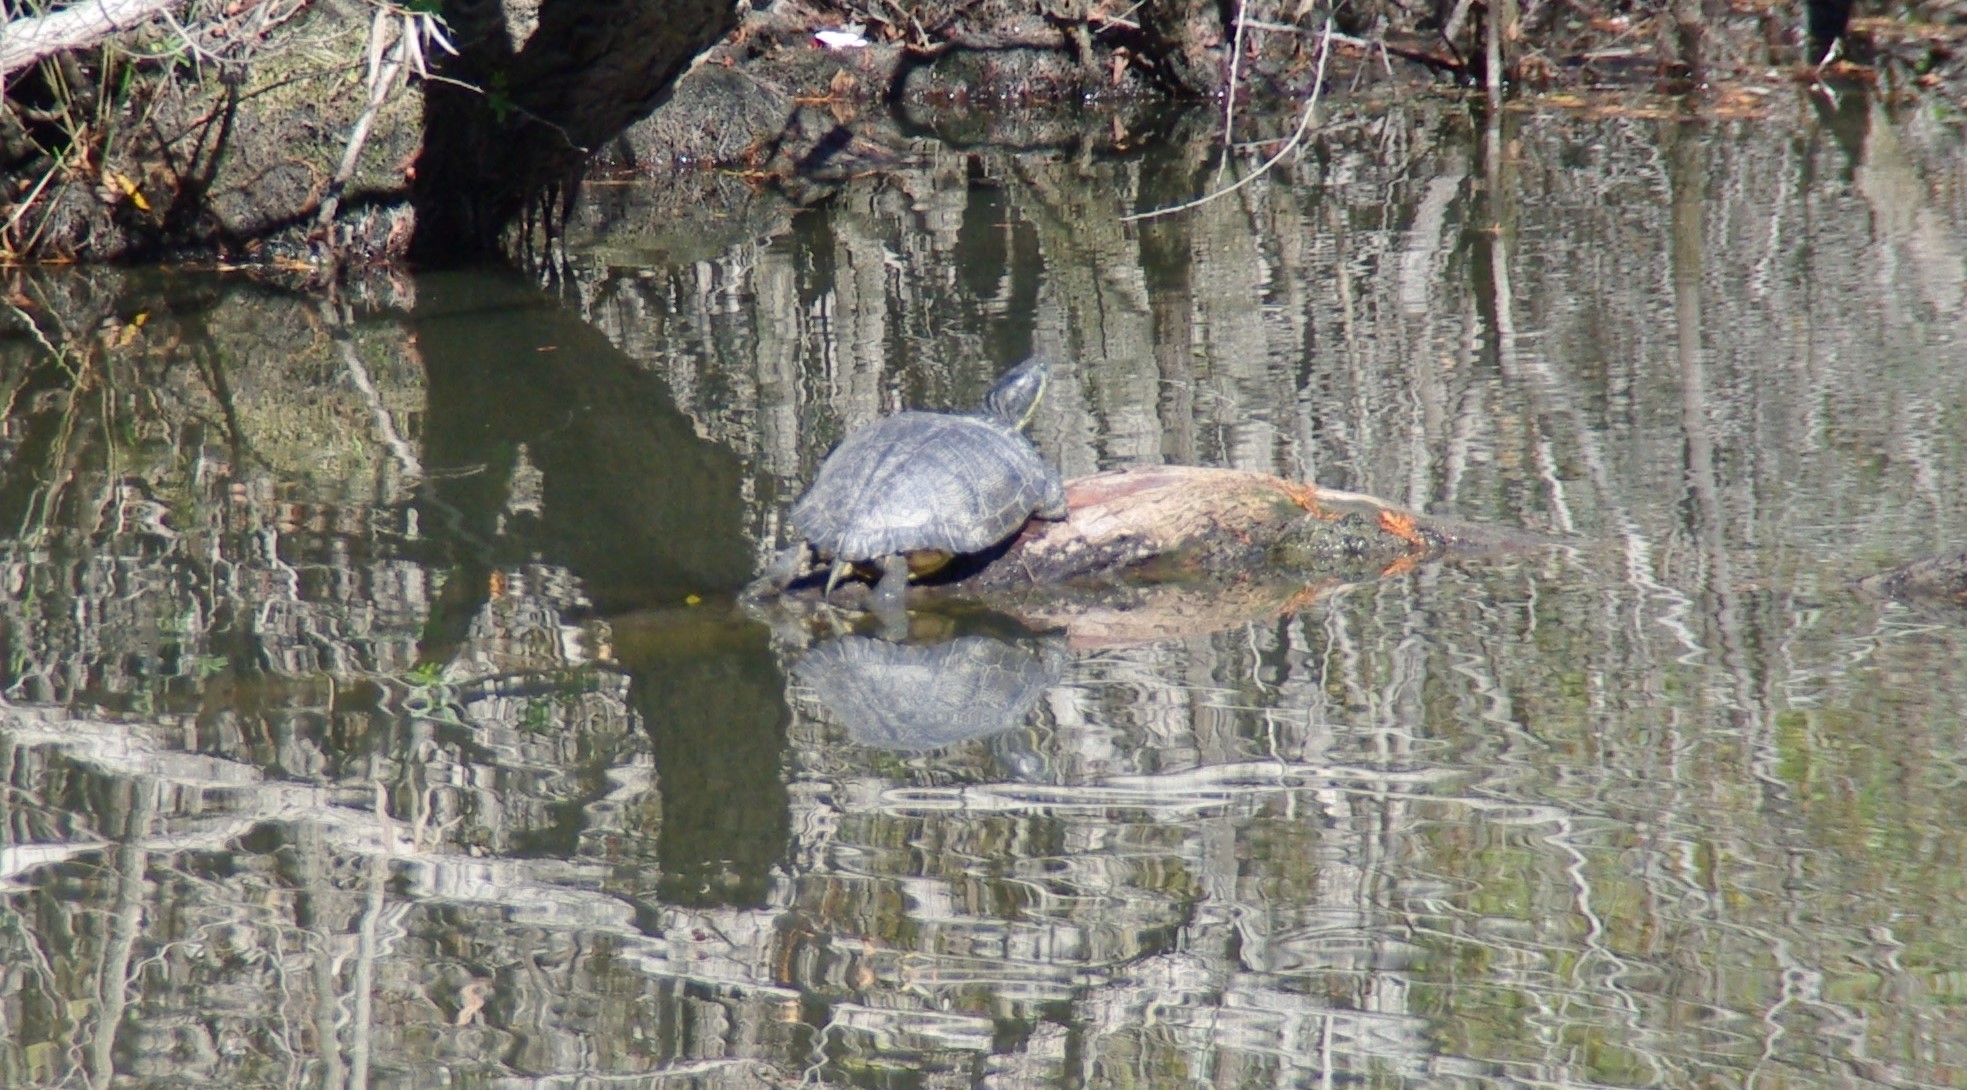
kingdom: Animalia
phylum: Chordata
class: Testudines
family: Emydidae
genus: Trachemys
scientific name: Trachemys scripta
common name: Slider
